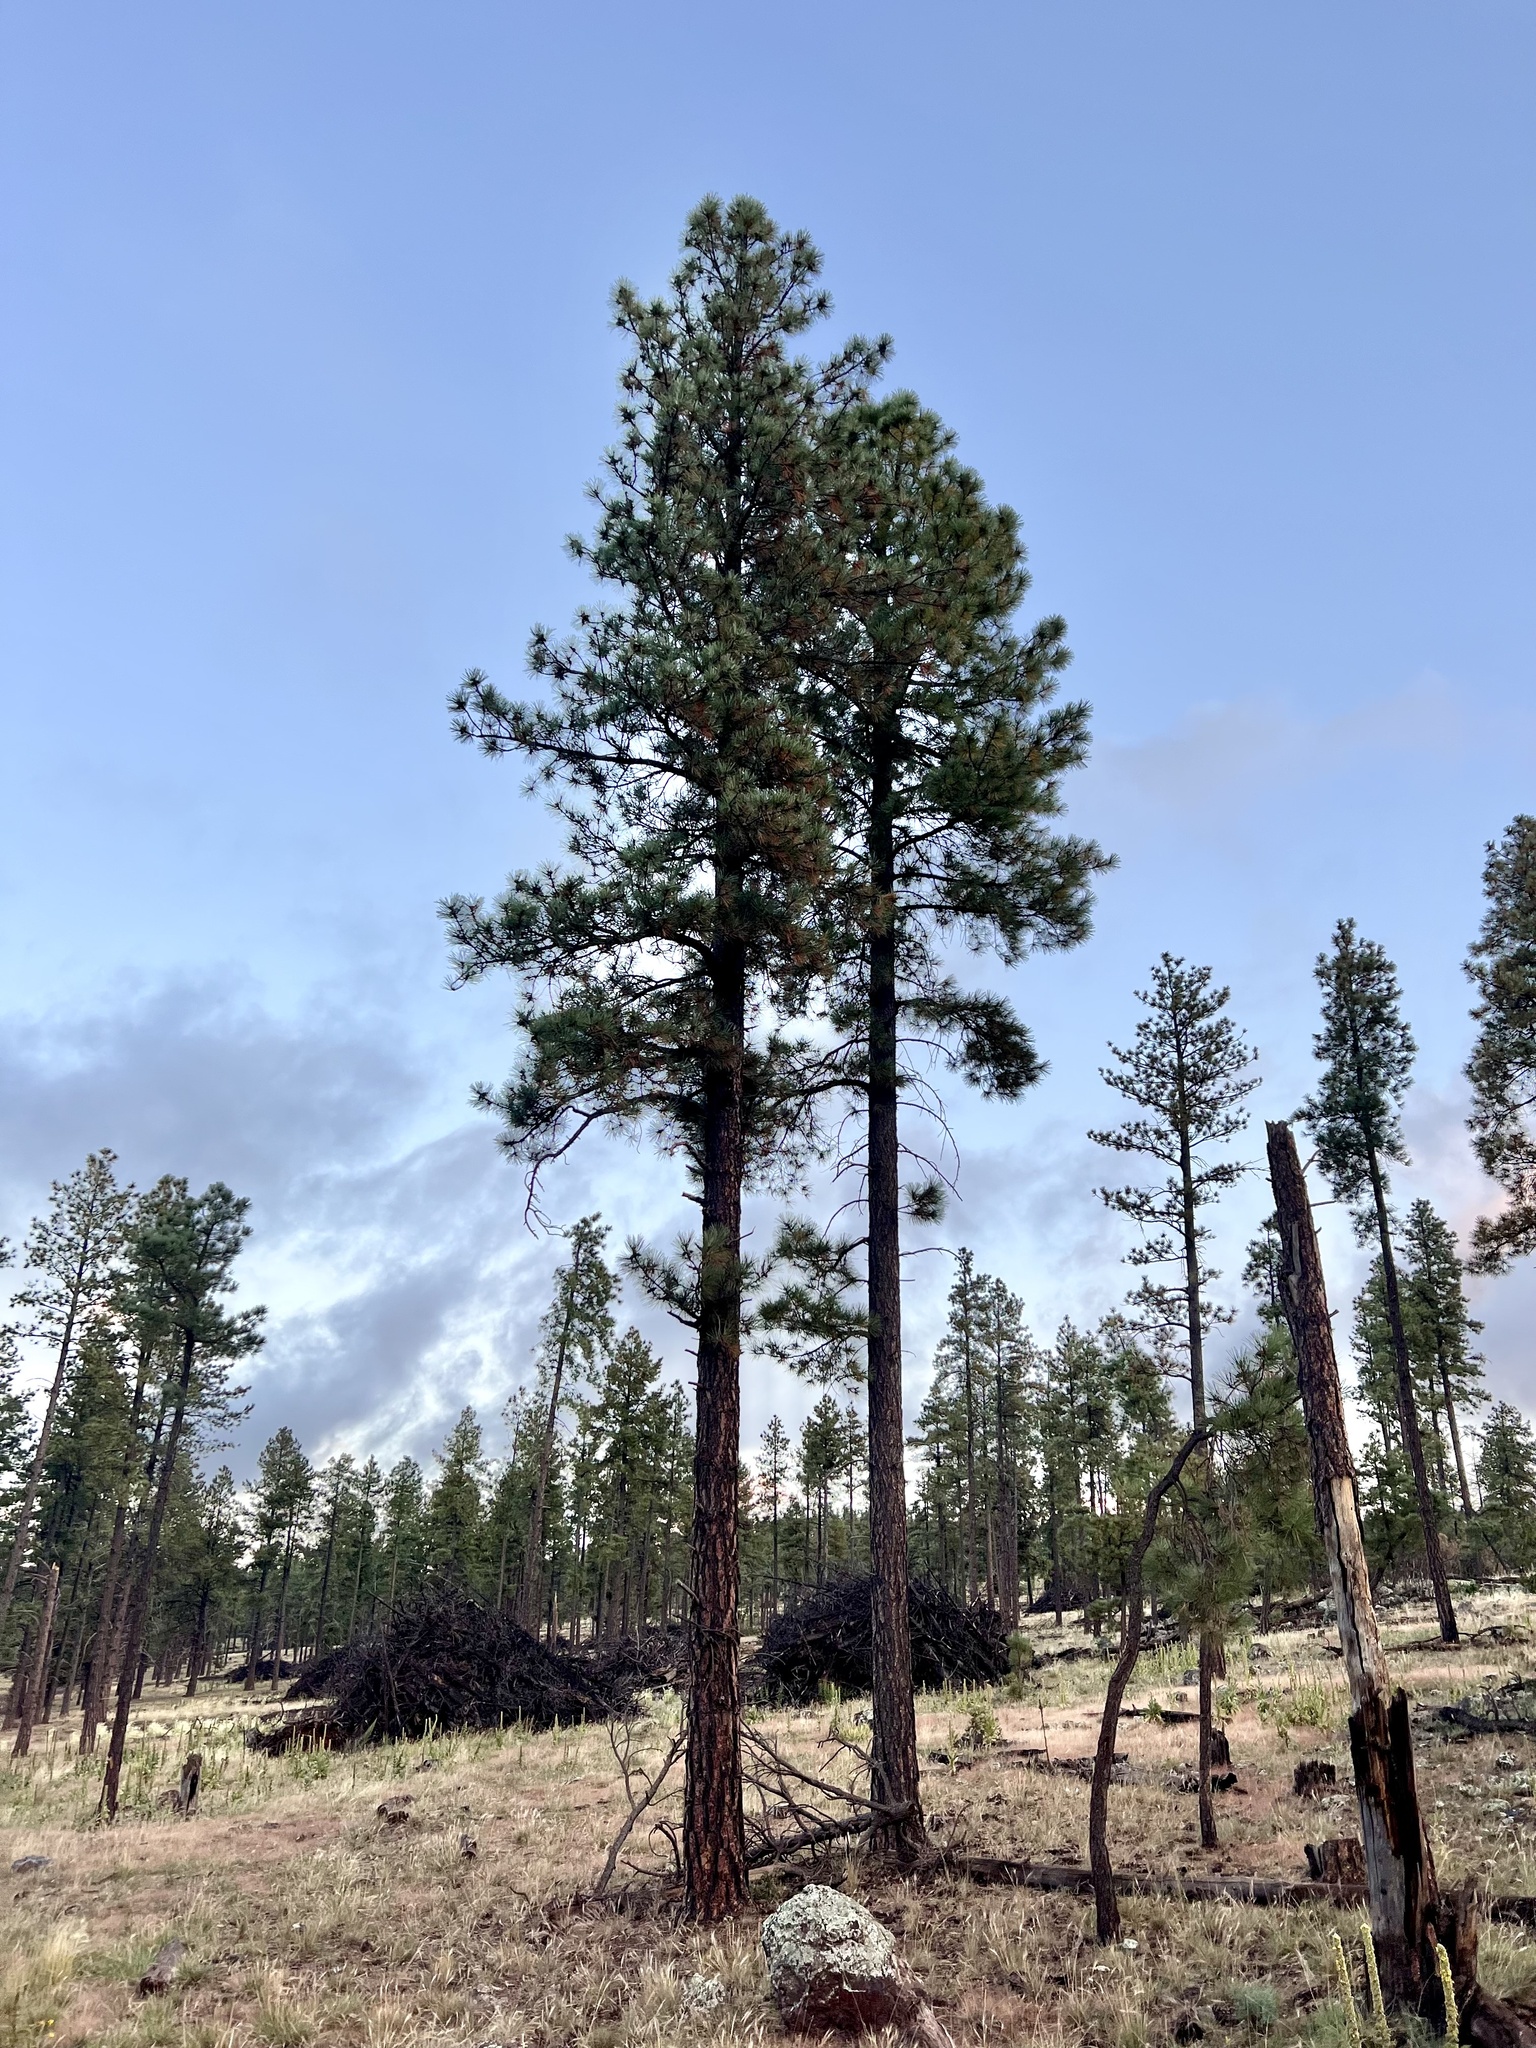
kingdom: Plantae
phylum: Tracheophyta
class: Pinopsida
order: Pinales
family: Pinaceae
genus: Pinus
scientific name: Pinus ponderosa
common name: Western yellow-pine
